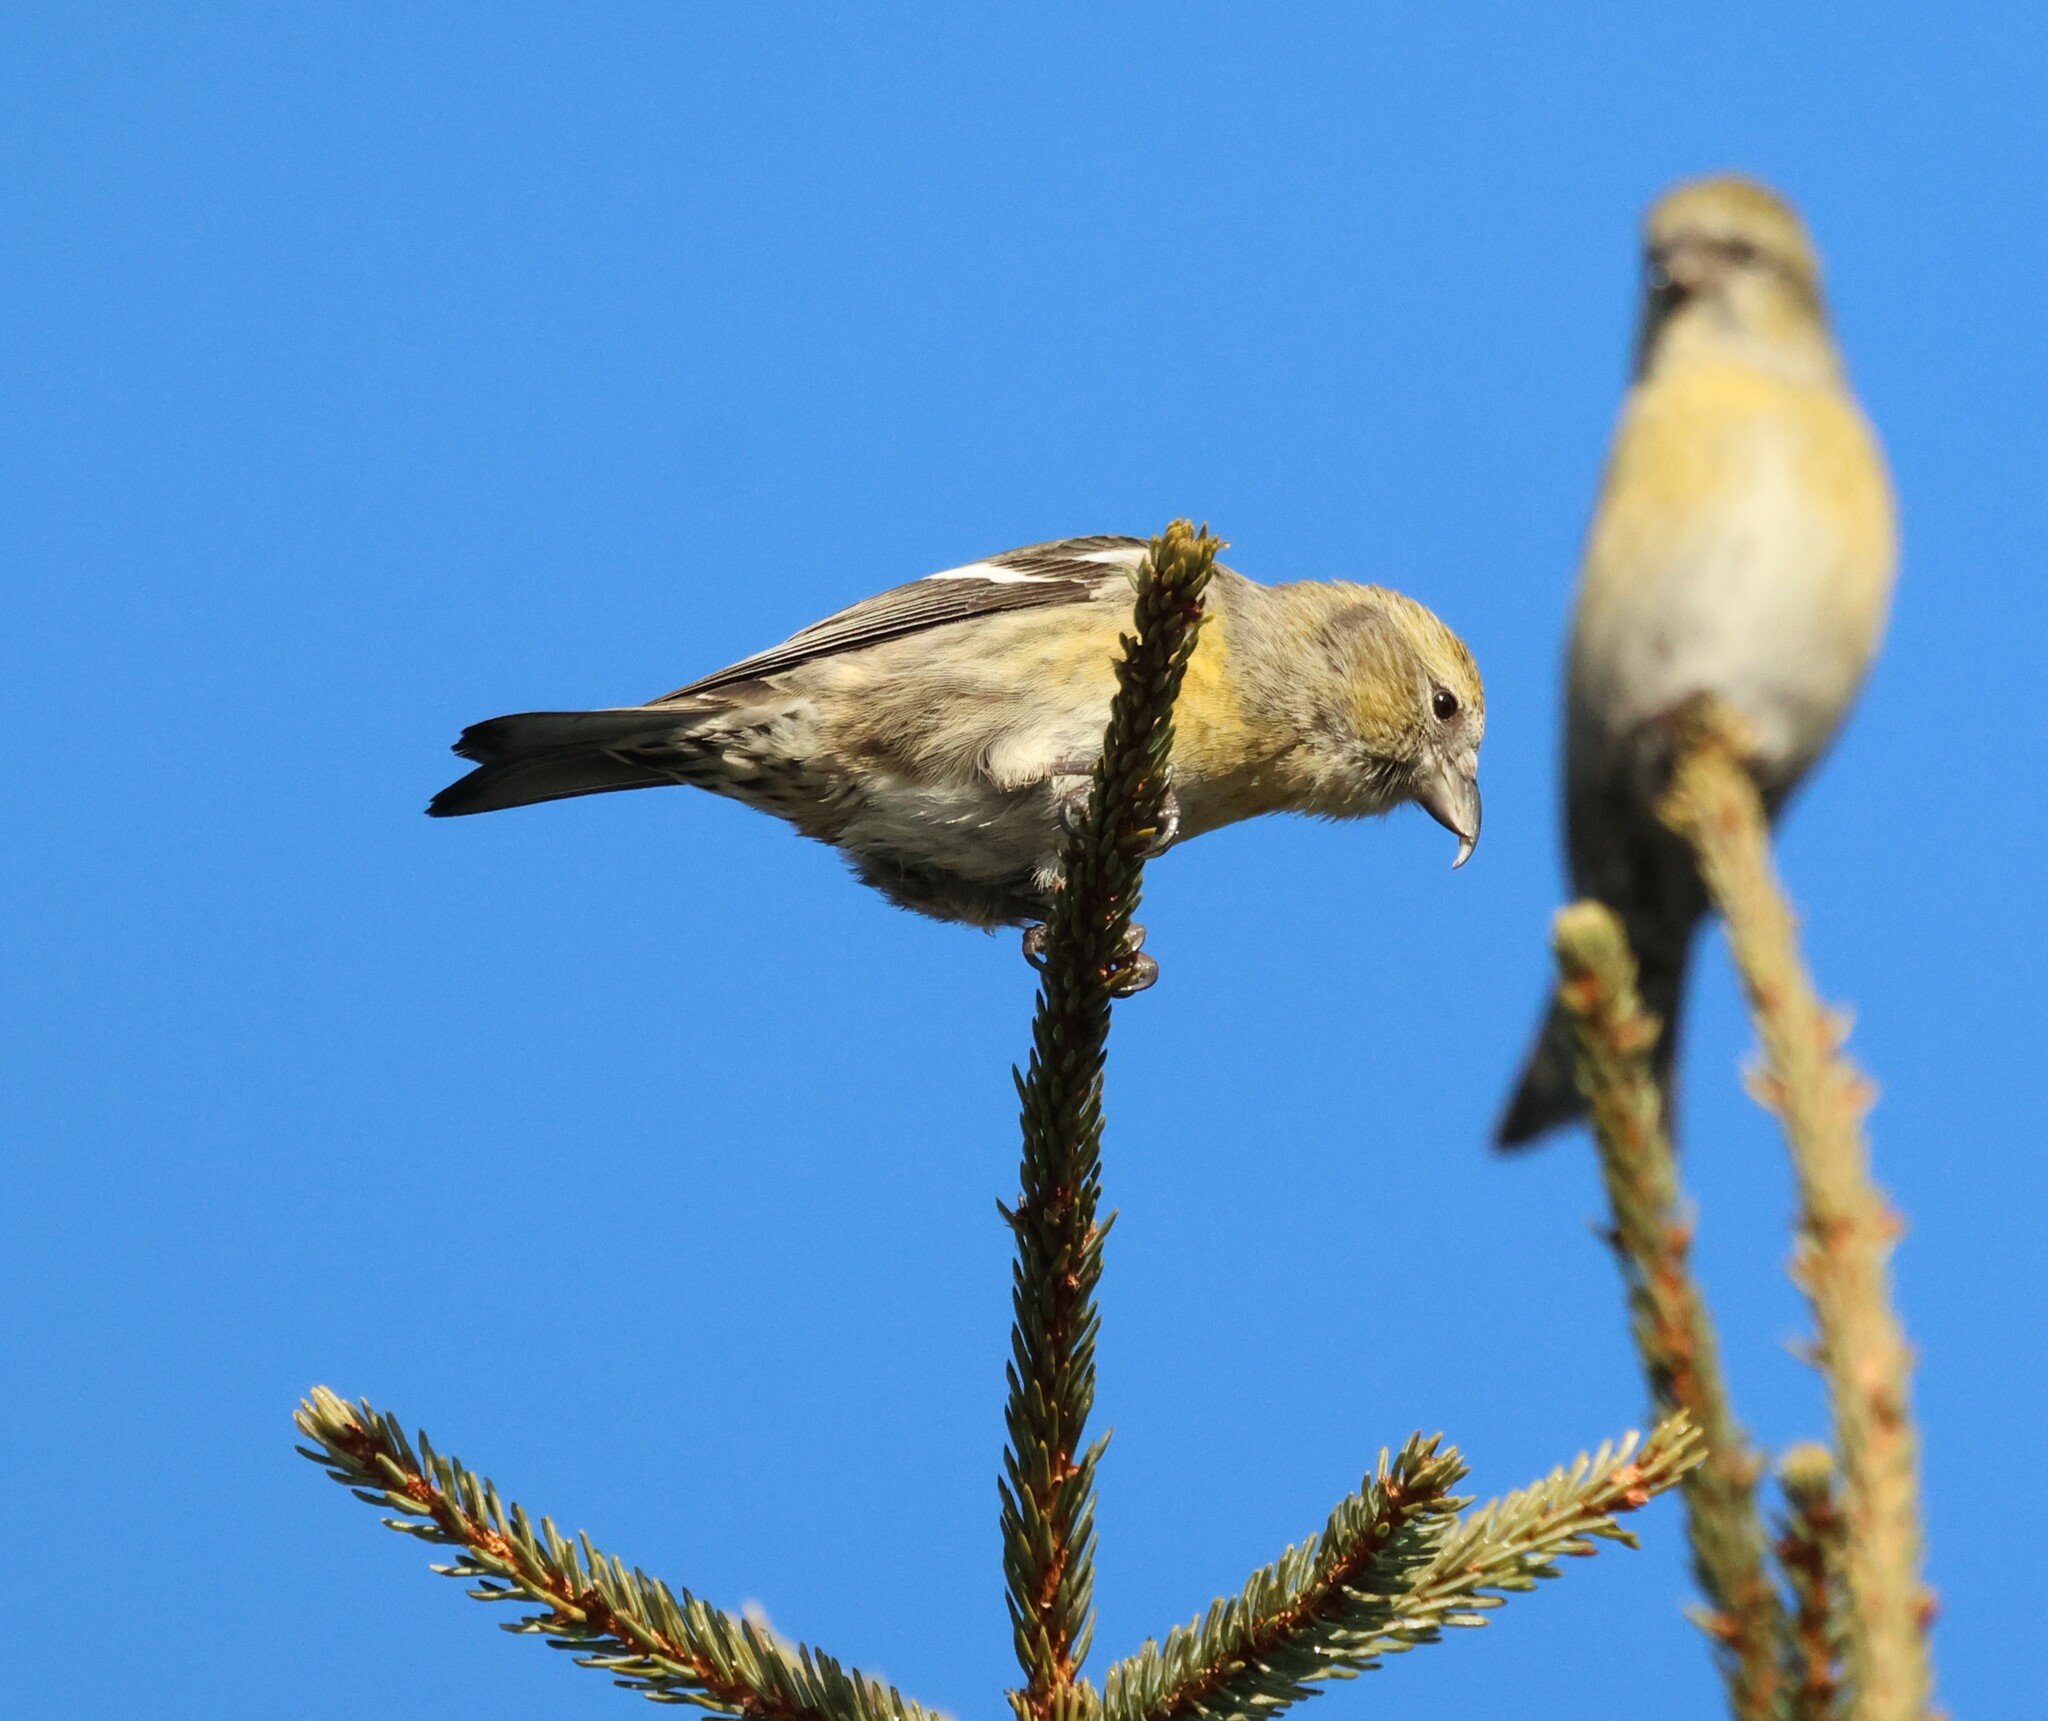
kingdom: Animalia
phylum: Chordata
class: Aves
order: Passeriformes
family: Fringillidae
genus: Loxia
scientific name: Loxia leucoptera
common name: Two-barred crossbill
